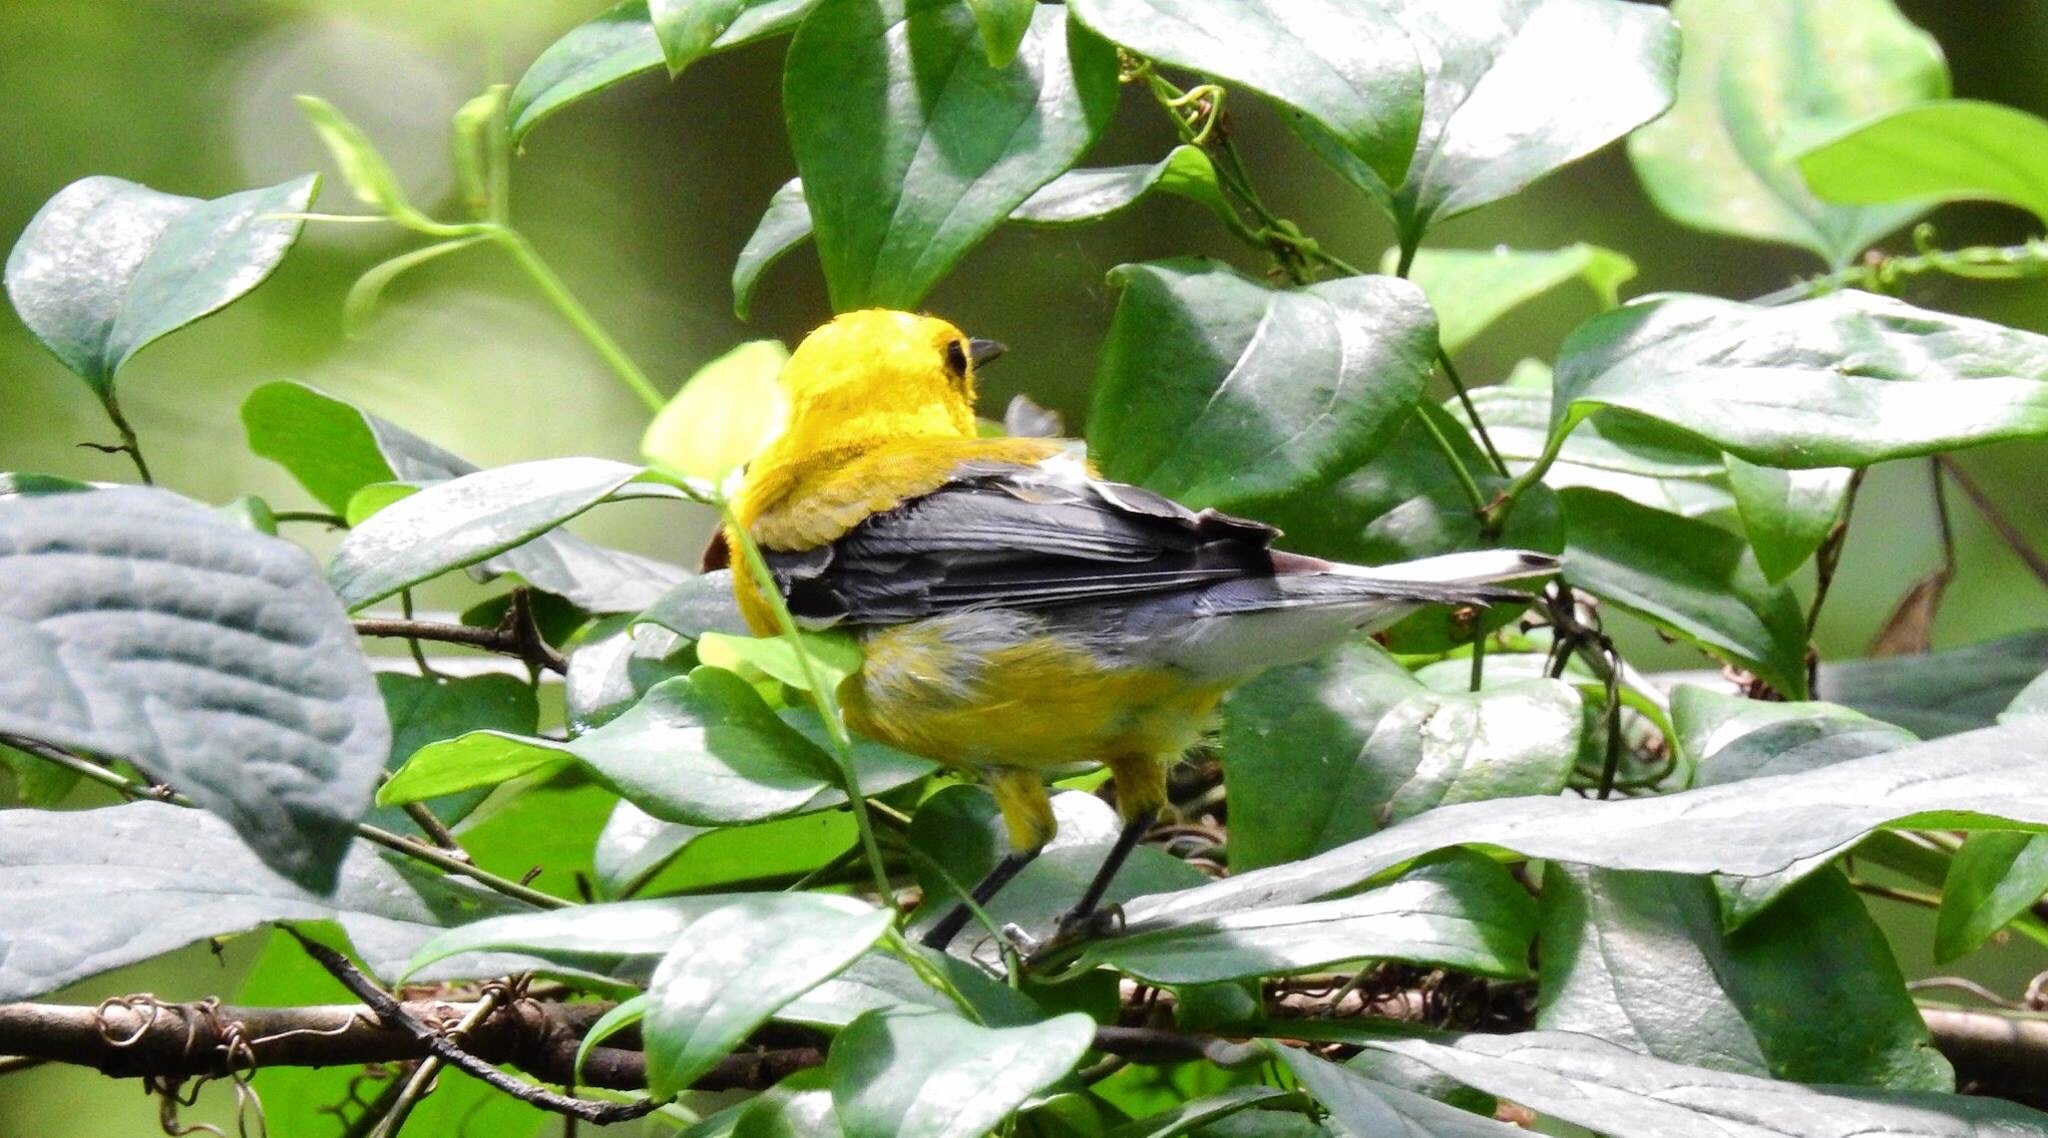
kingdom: Animalia
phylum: Chordata
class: Aves
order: Passeriformes
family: Parulidae
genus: Protonotaria
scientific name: Protonotaria citrea
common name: Prothonotary warbler
